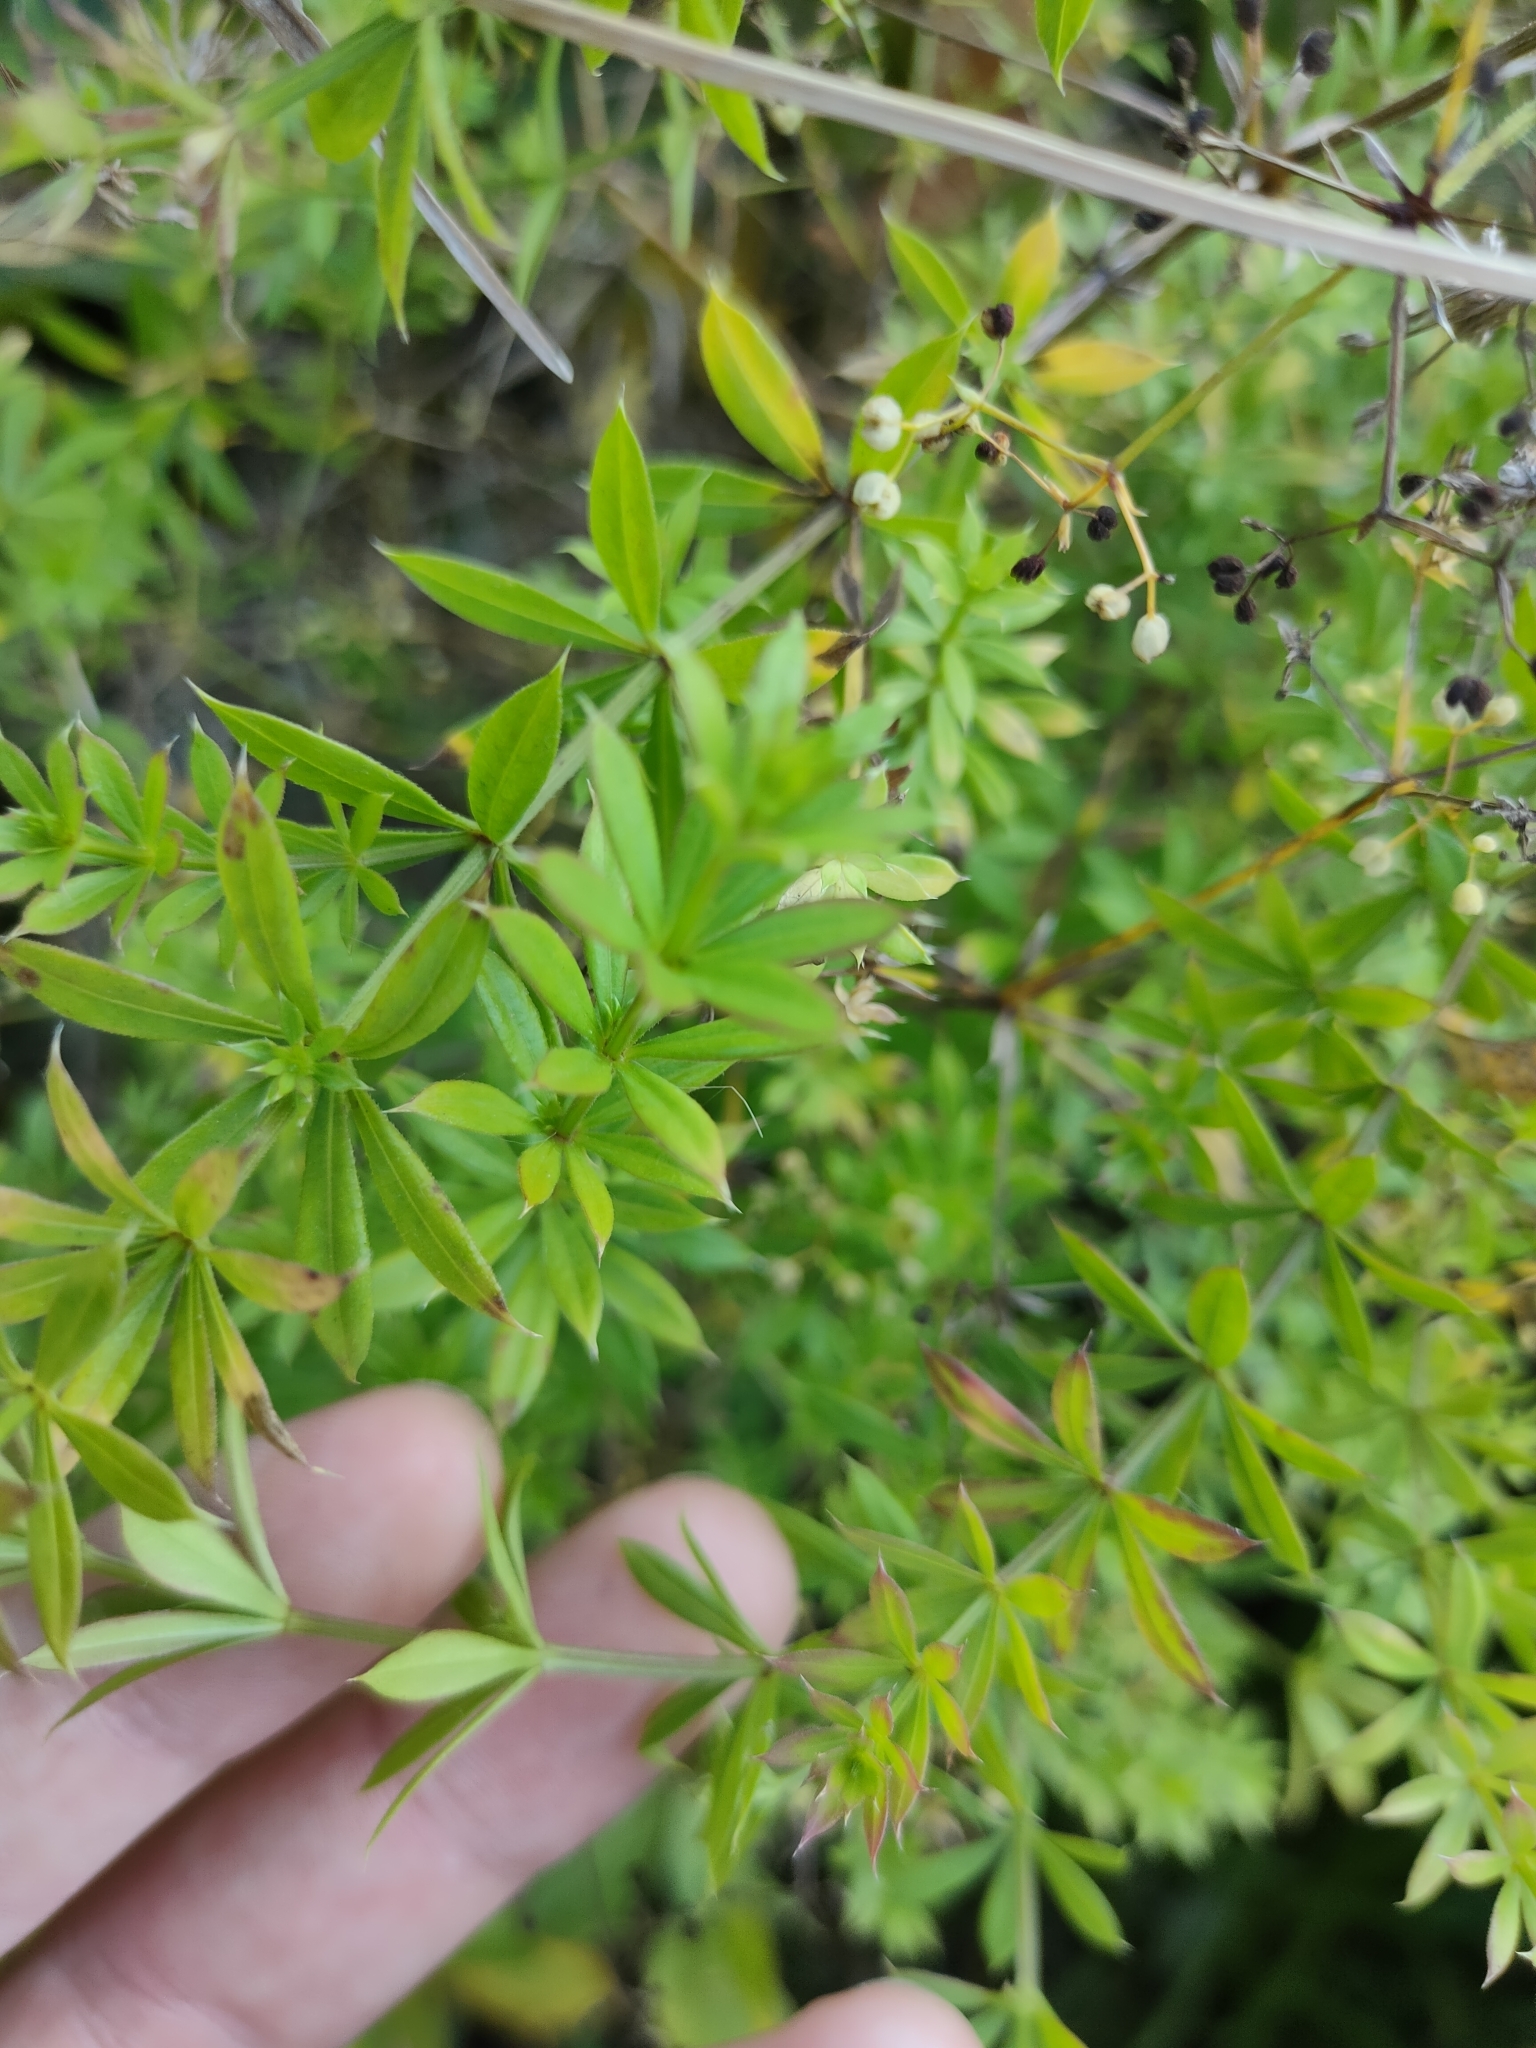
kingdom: Plantae
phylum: Tracheophyta
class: Magnoliopsida
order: Gentianales
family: Rubiaceae
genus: Galium
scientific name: Galium rivale
